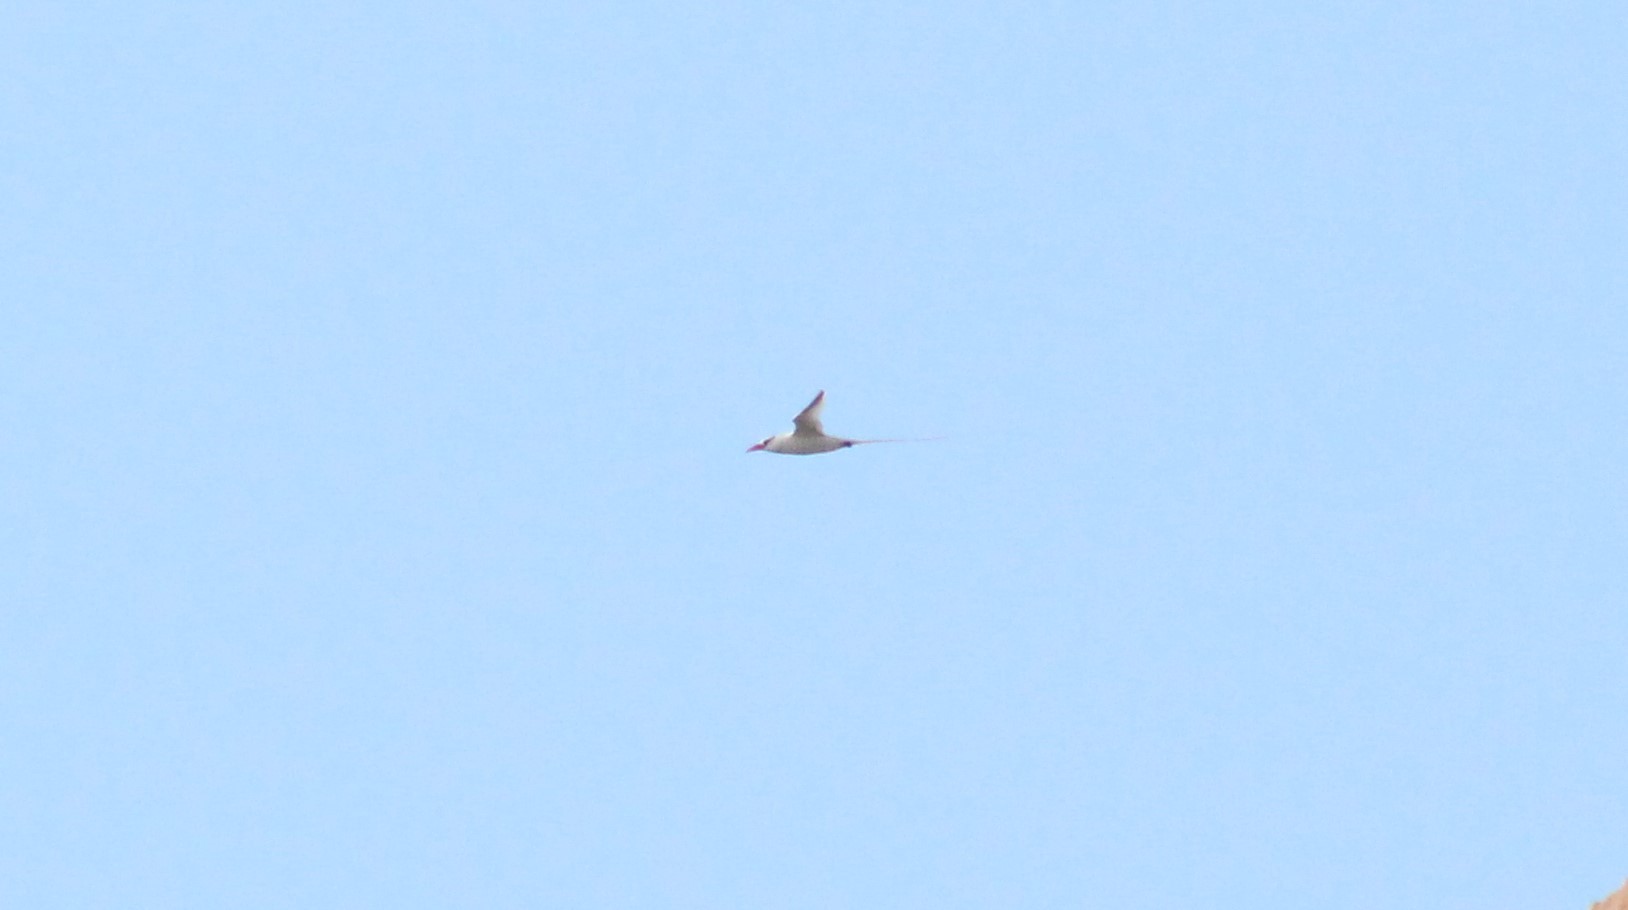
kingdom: Animalia
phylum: Chordata
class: Aves
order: Phaethontiformes
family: Phaethontidae
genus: Phaethon
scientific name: Phaethon aethereus
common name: Red-billed tropicbird
